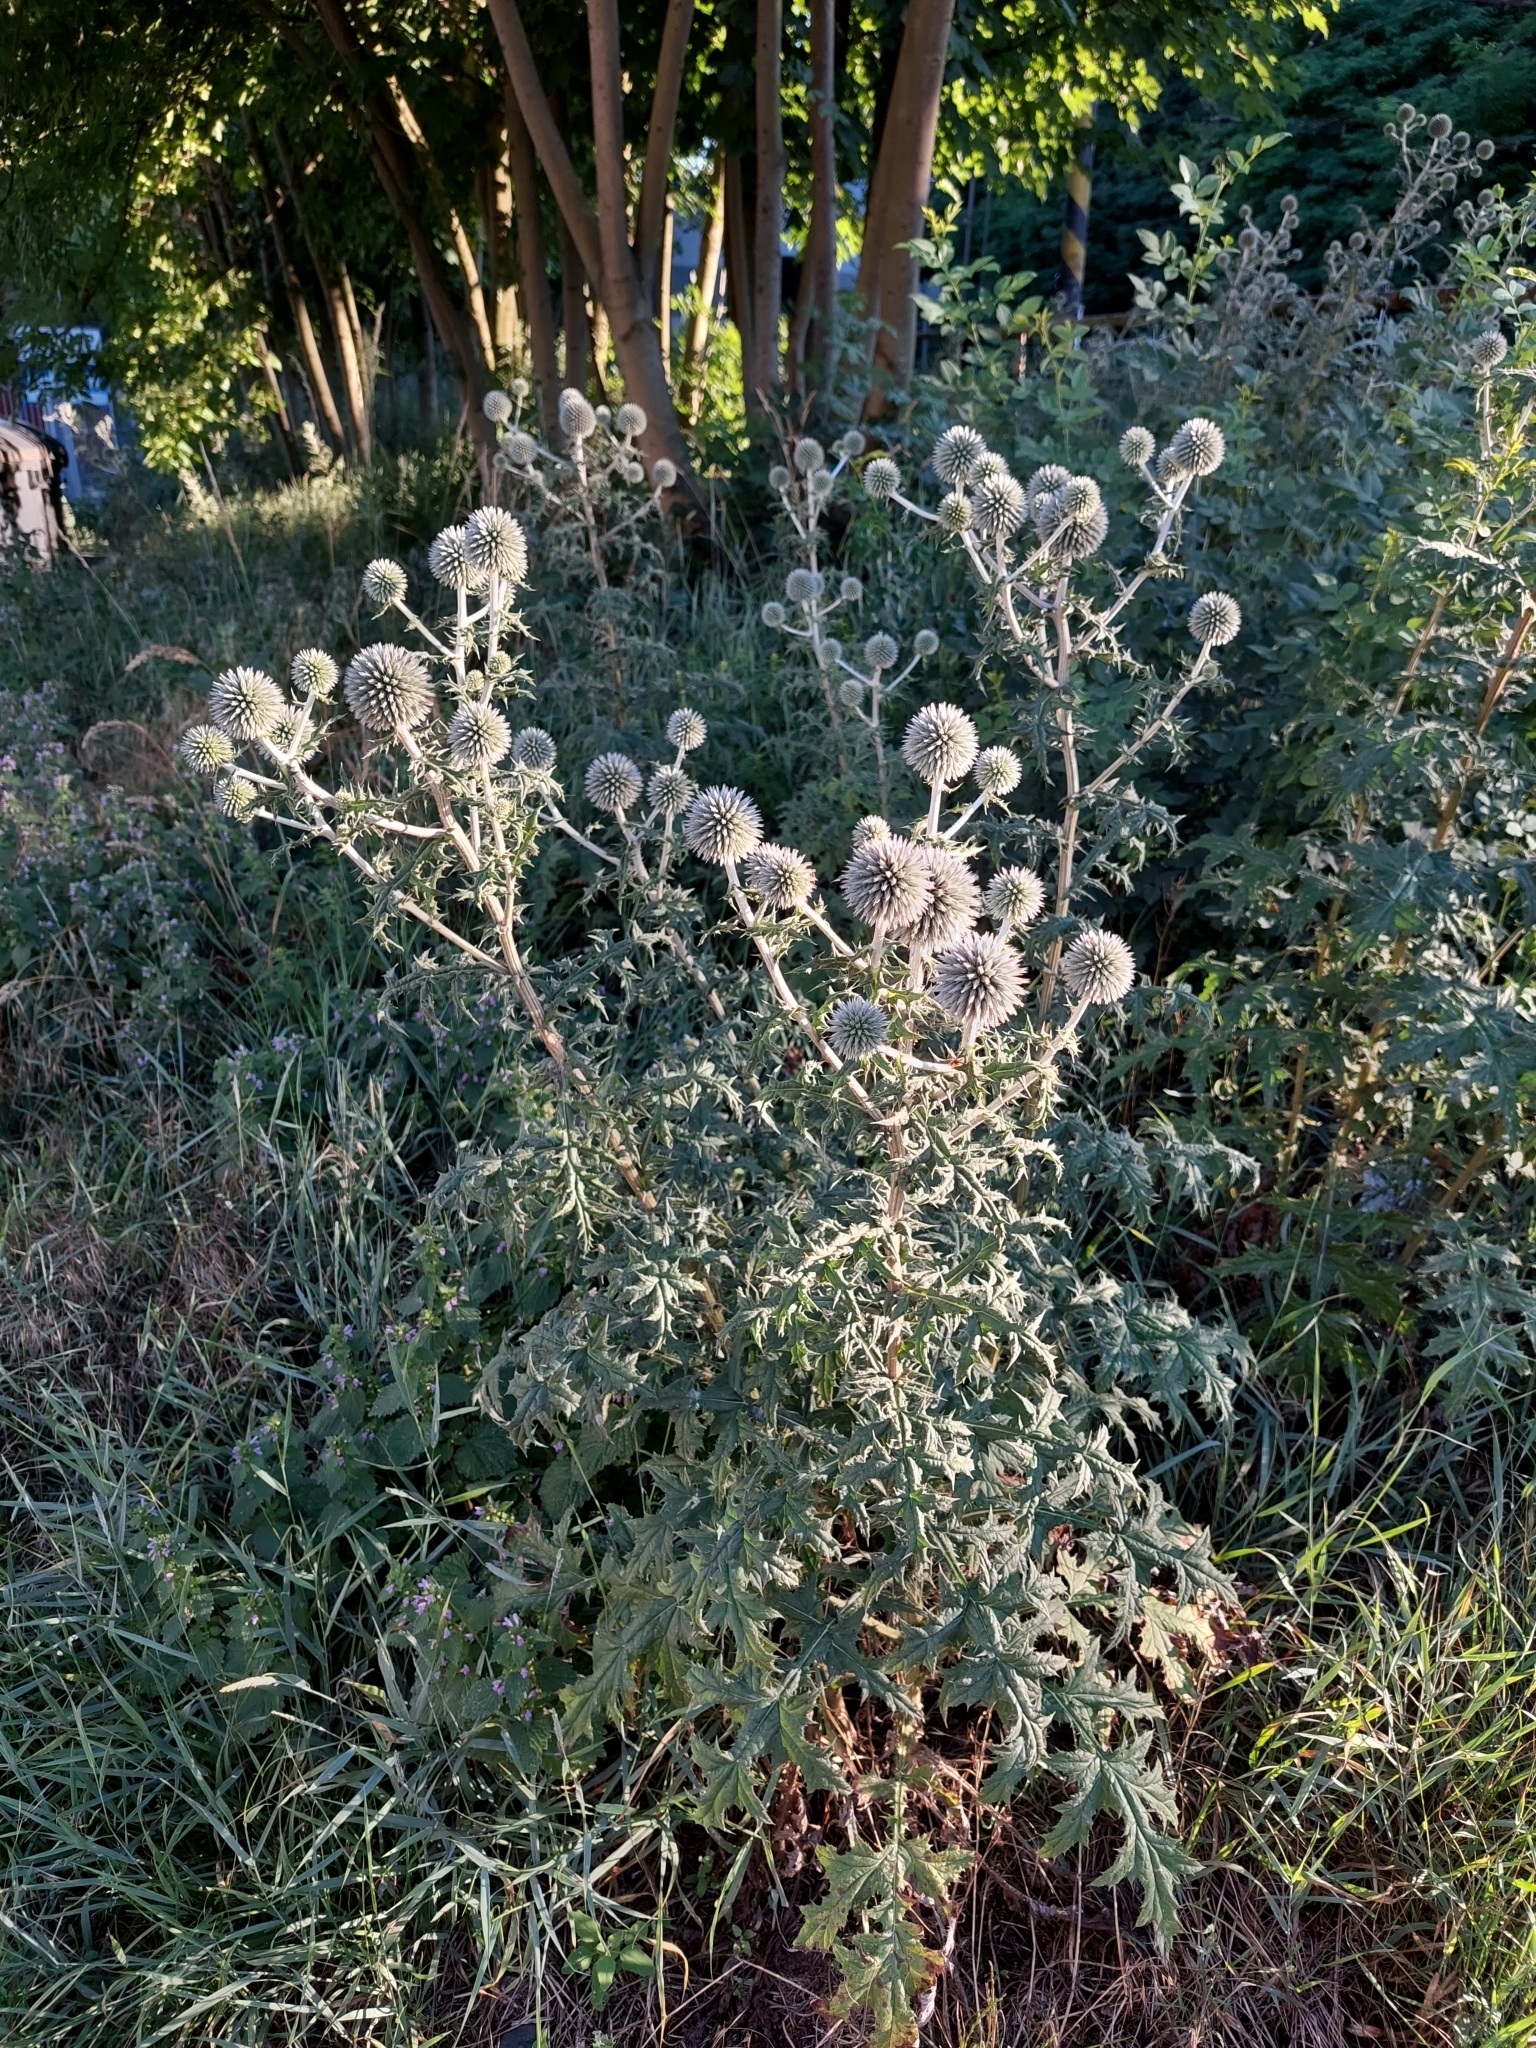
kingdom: Plantae
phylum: Tracheophyta
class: Magnoliopsida
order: Asterales
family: Asteraceae
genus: Echinops
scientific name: Echinops sphaerocephalus
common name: Glandular globe-thistle
